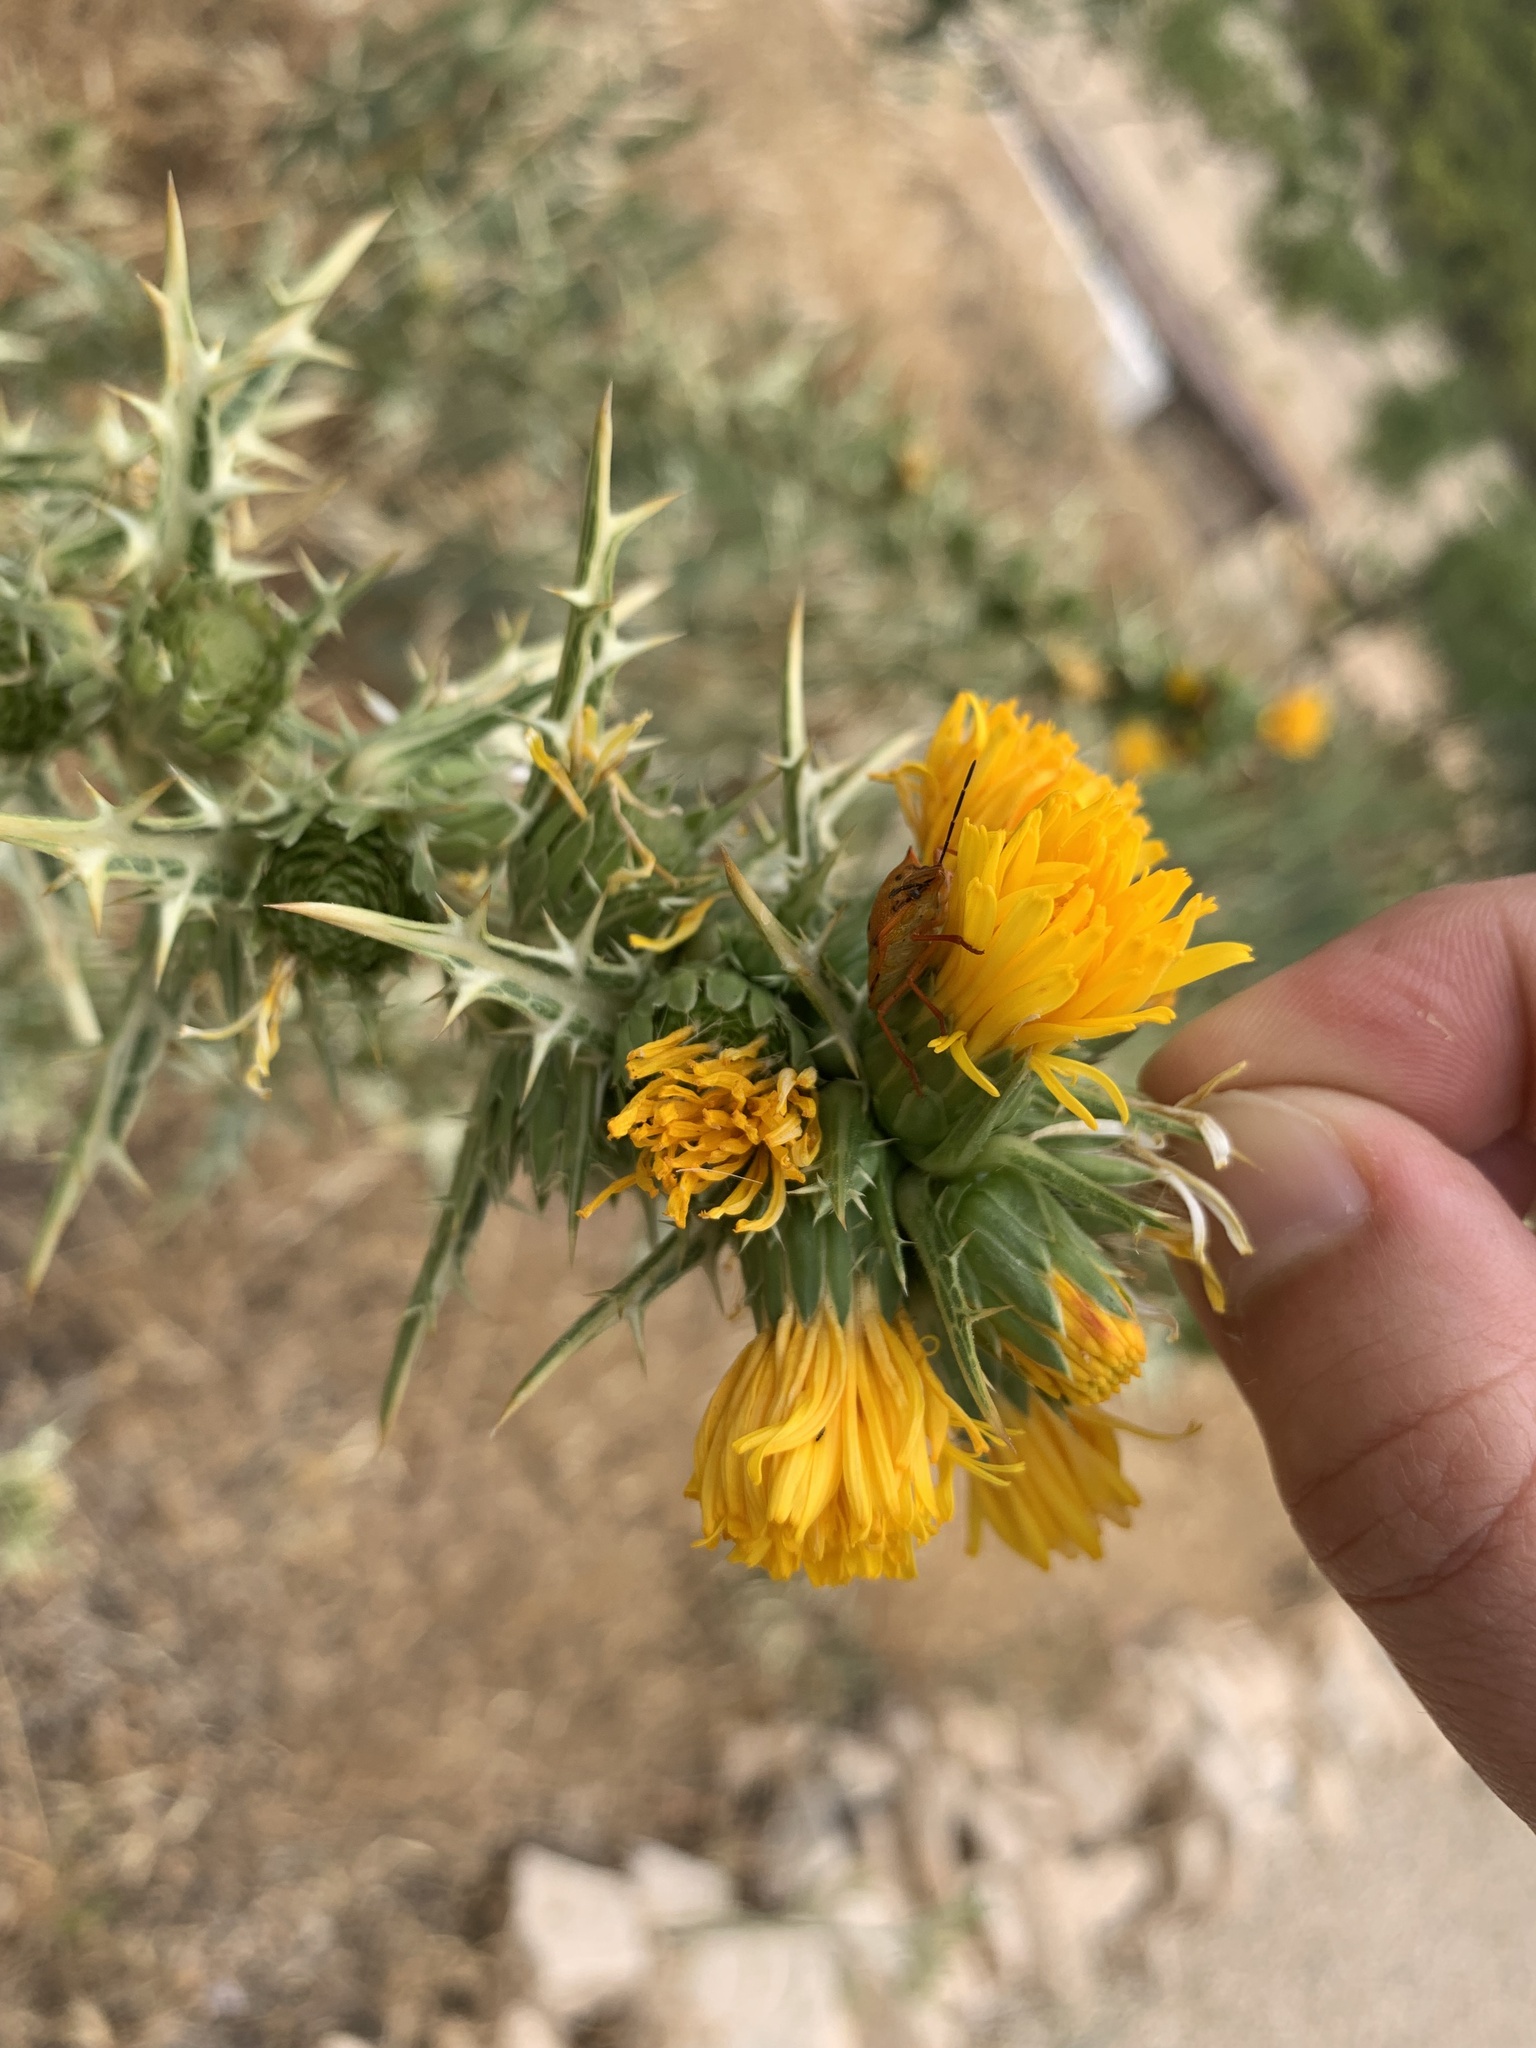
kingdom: Animalia
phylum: Arthropoda
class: Insecta
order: Hemiptera
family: Pentatomidae
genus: Carpocoris
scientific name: Carpocoris mediterraneus
